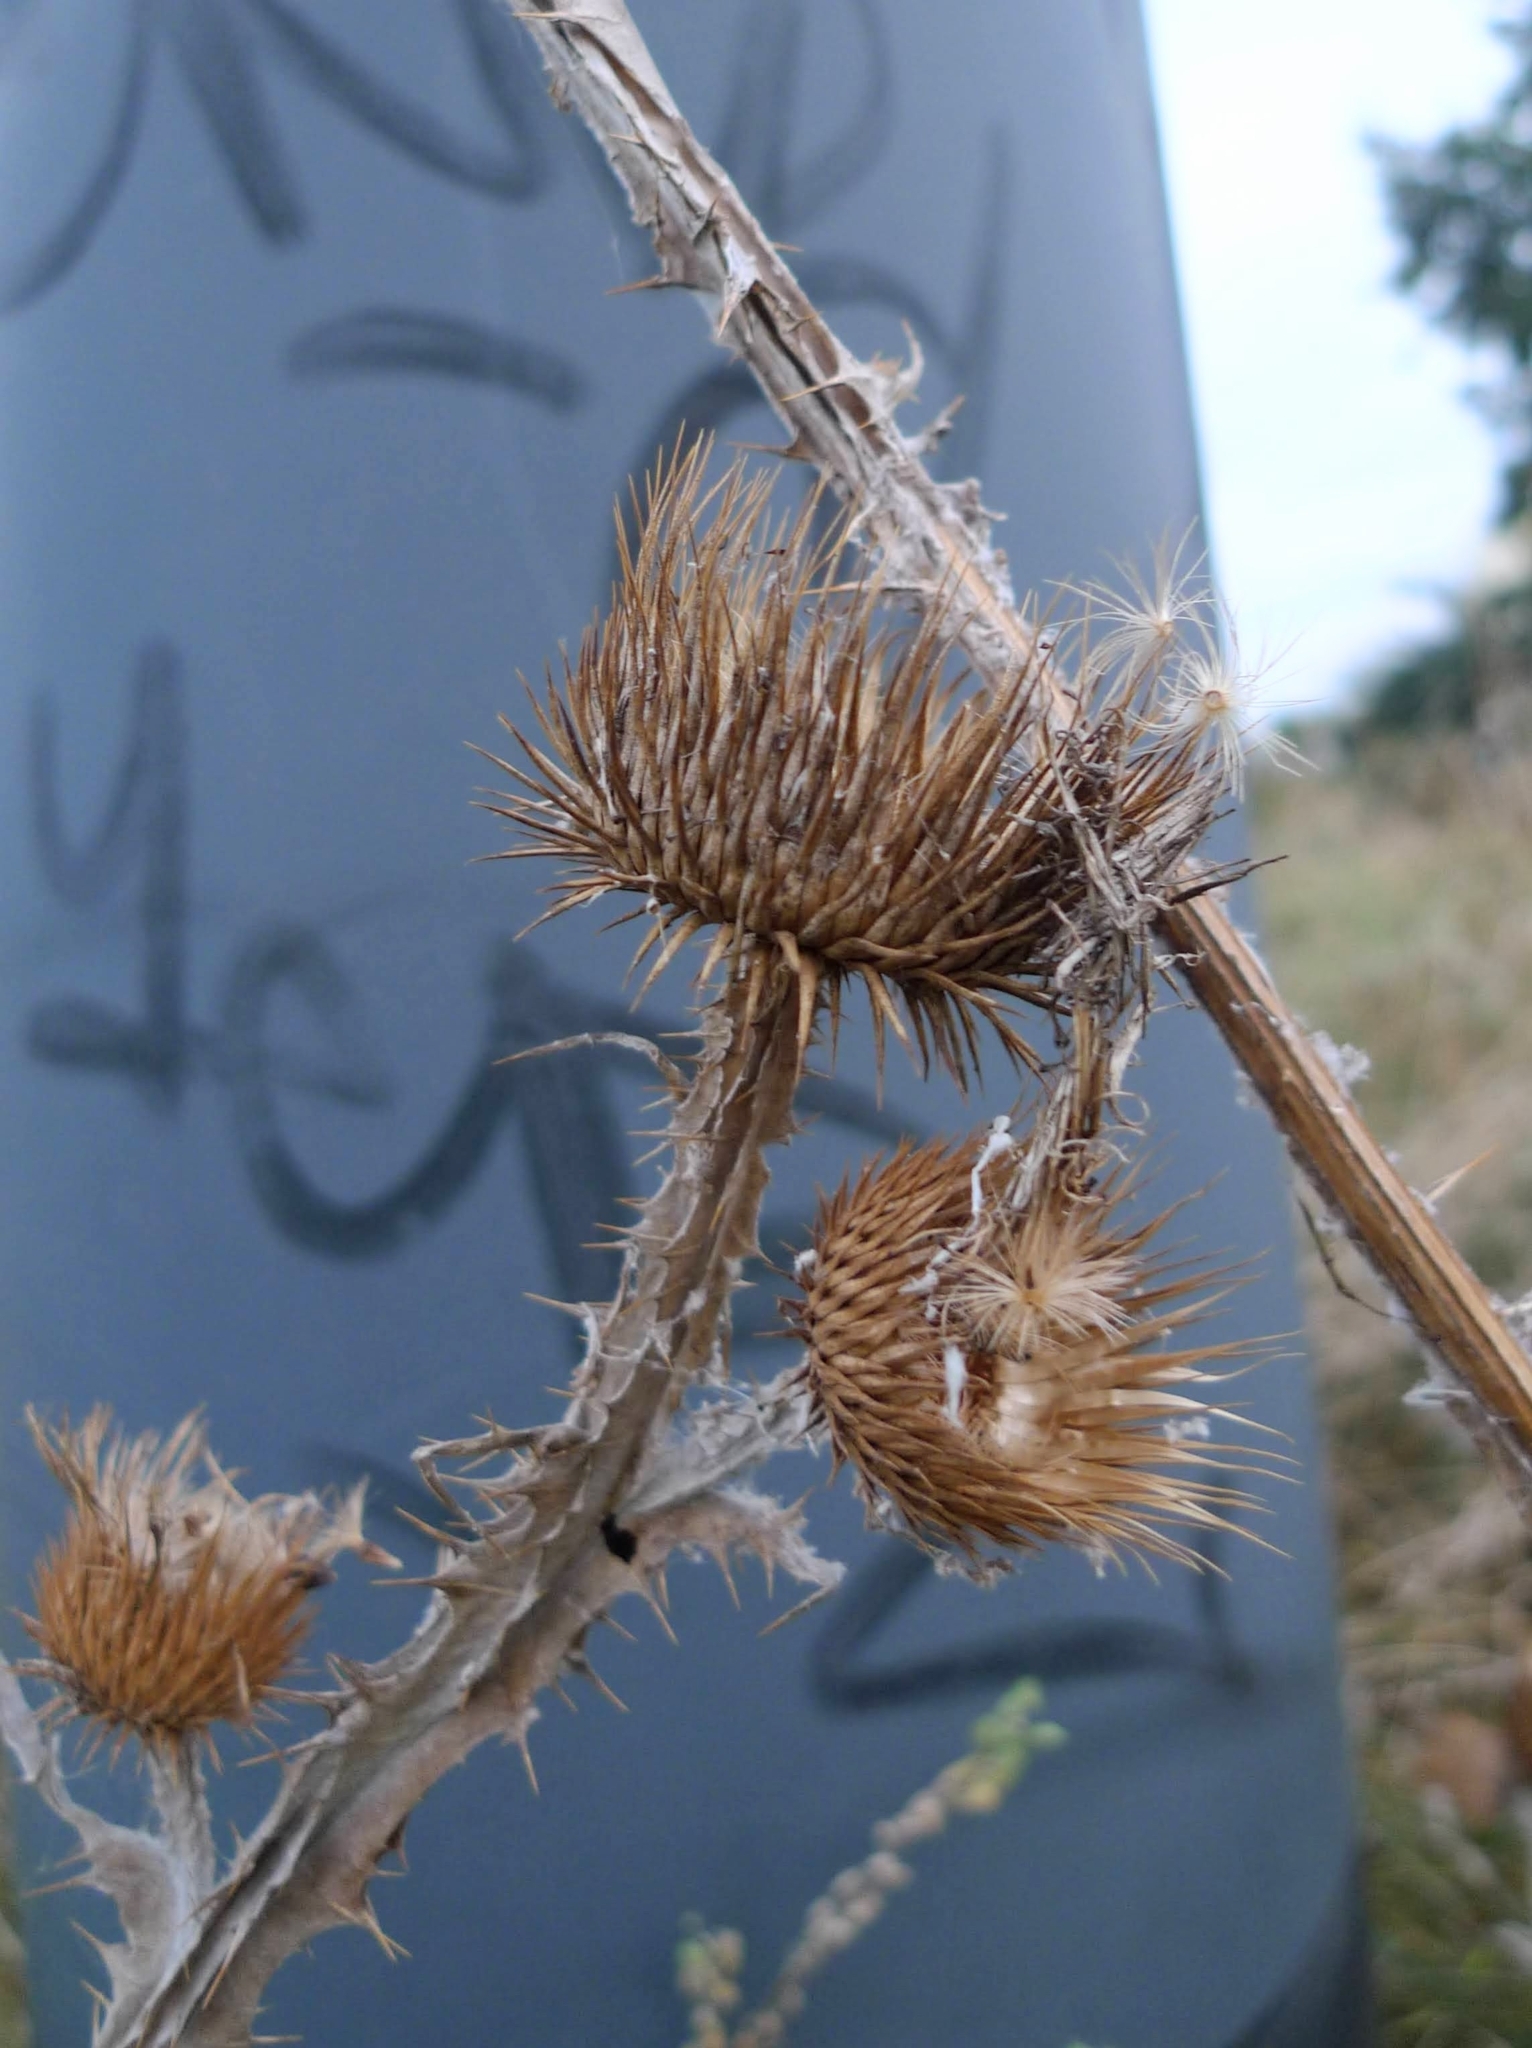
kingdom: Plantae
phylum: Tracheophyta
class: Magnoliopsida
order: Asterales
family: Asteraceae
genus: Onopordum
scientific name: Onopordum acanthium
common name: Scotch thistle
